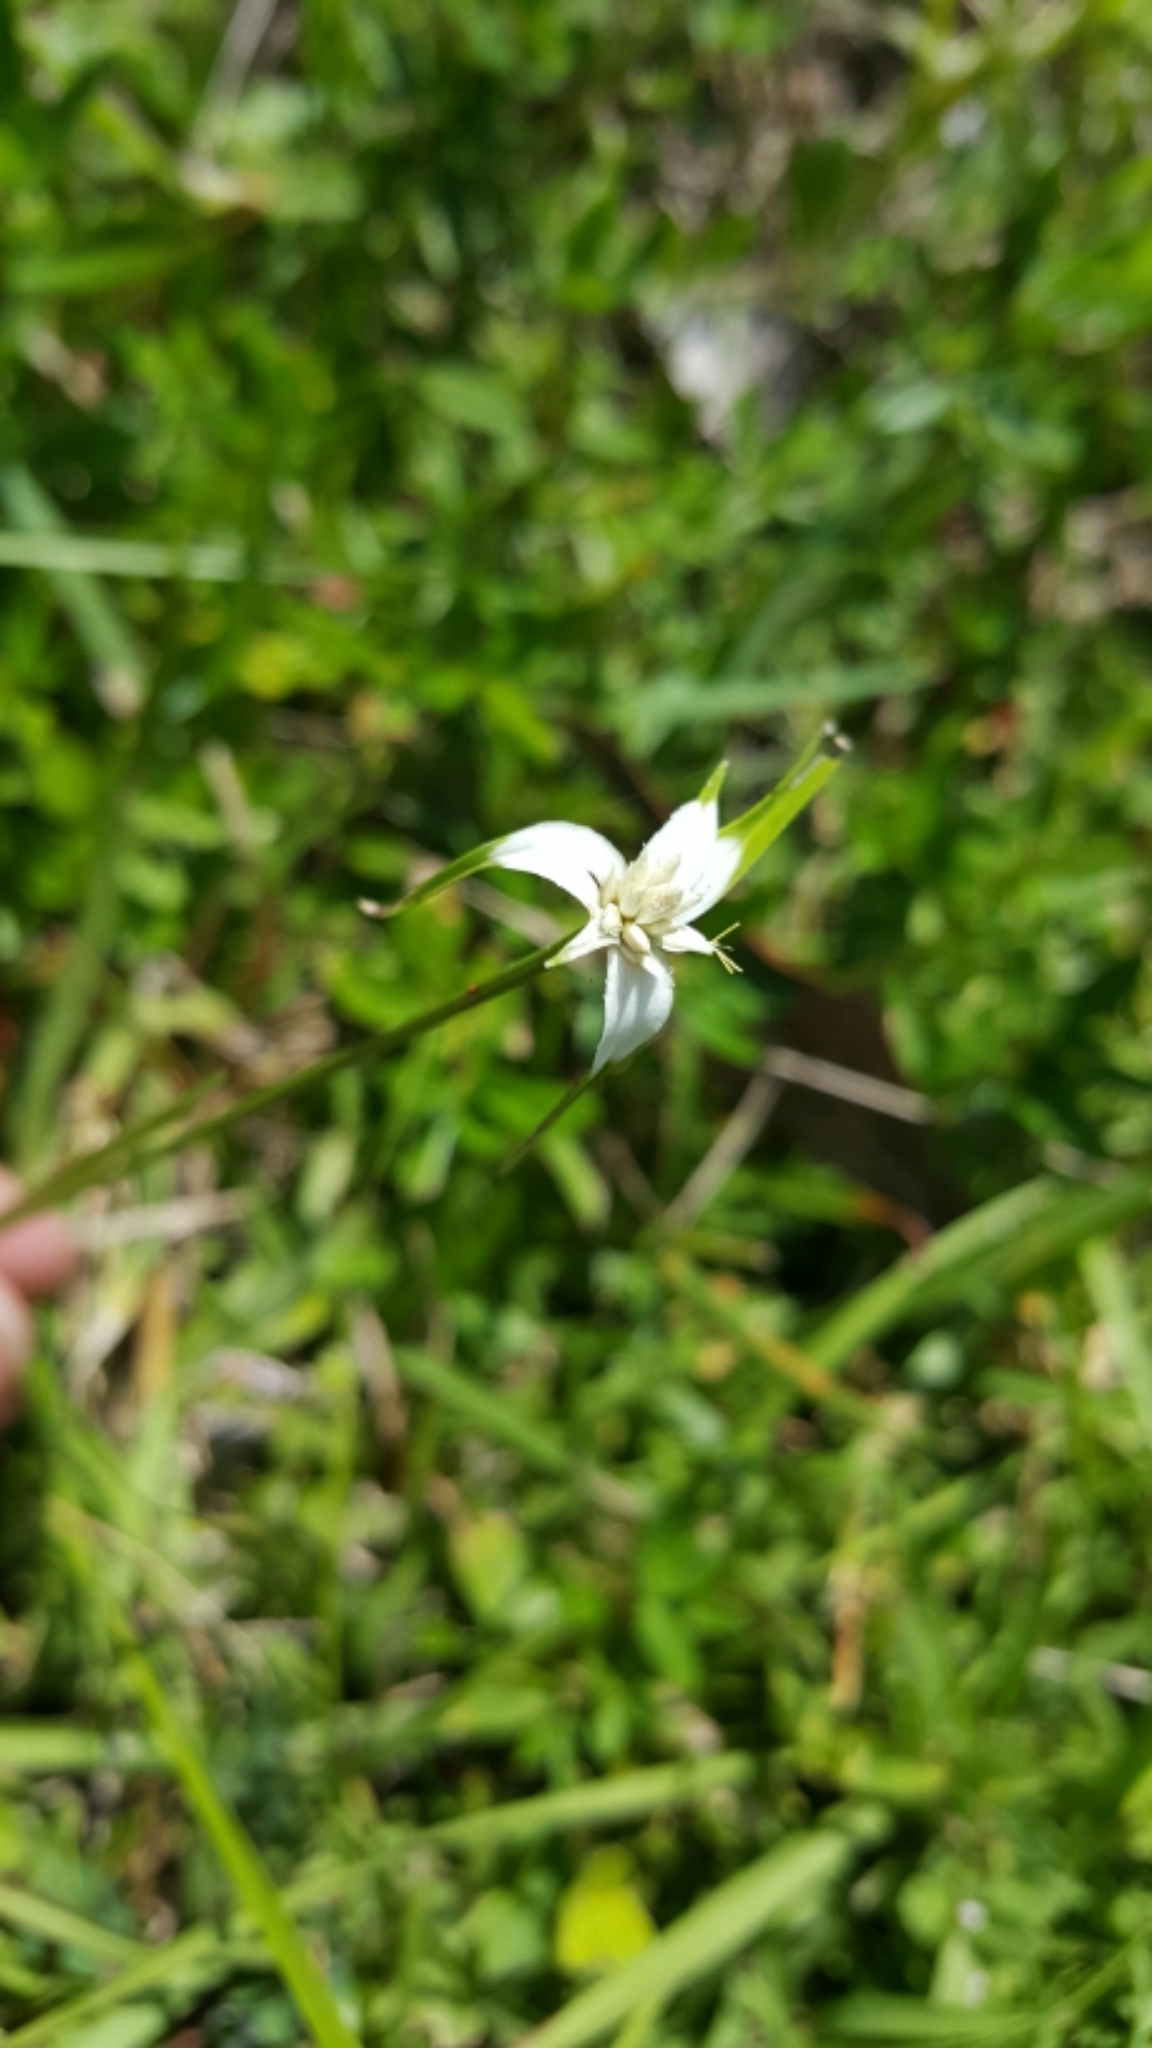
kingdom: Plantae
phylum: Tracheophyta
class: Liliopsida
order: Poales
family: Cyperaceae
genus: Rhynchospora
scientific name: Rhynchospora colorata
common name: Star sedge
